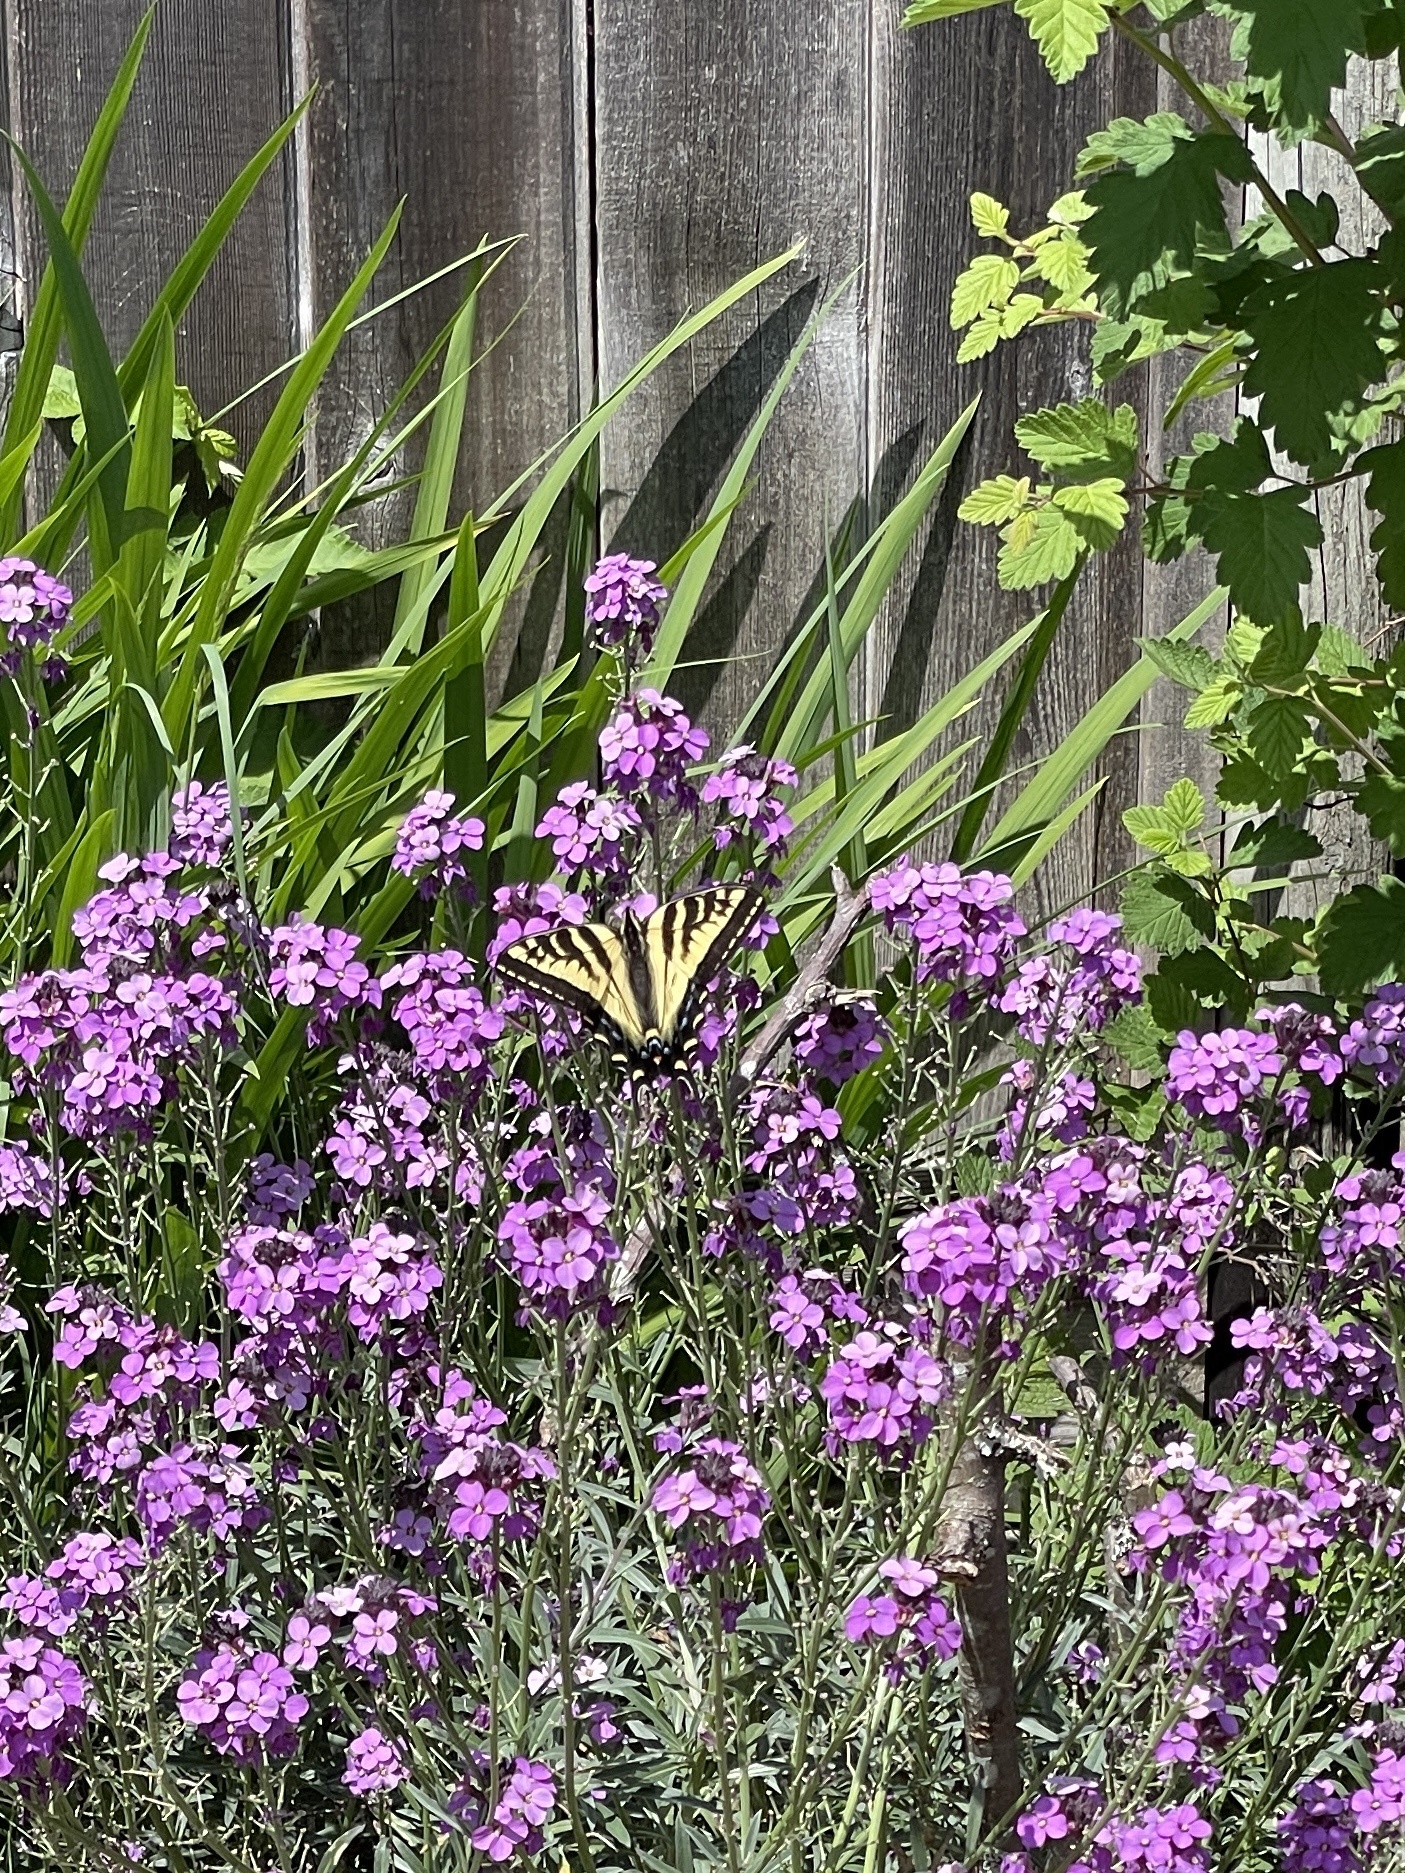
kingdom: Animalia
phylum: Arthropoda
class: Insecta
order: Lepidoptera
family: Papilionidae
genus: Papilio
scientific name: Papilio rutulus
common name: Western tiger swallowtail
